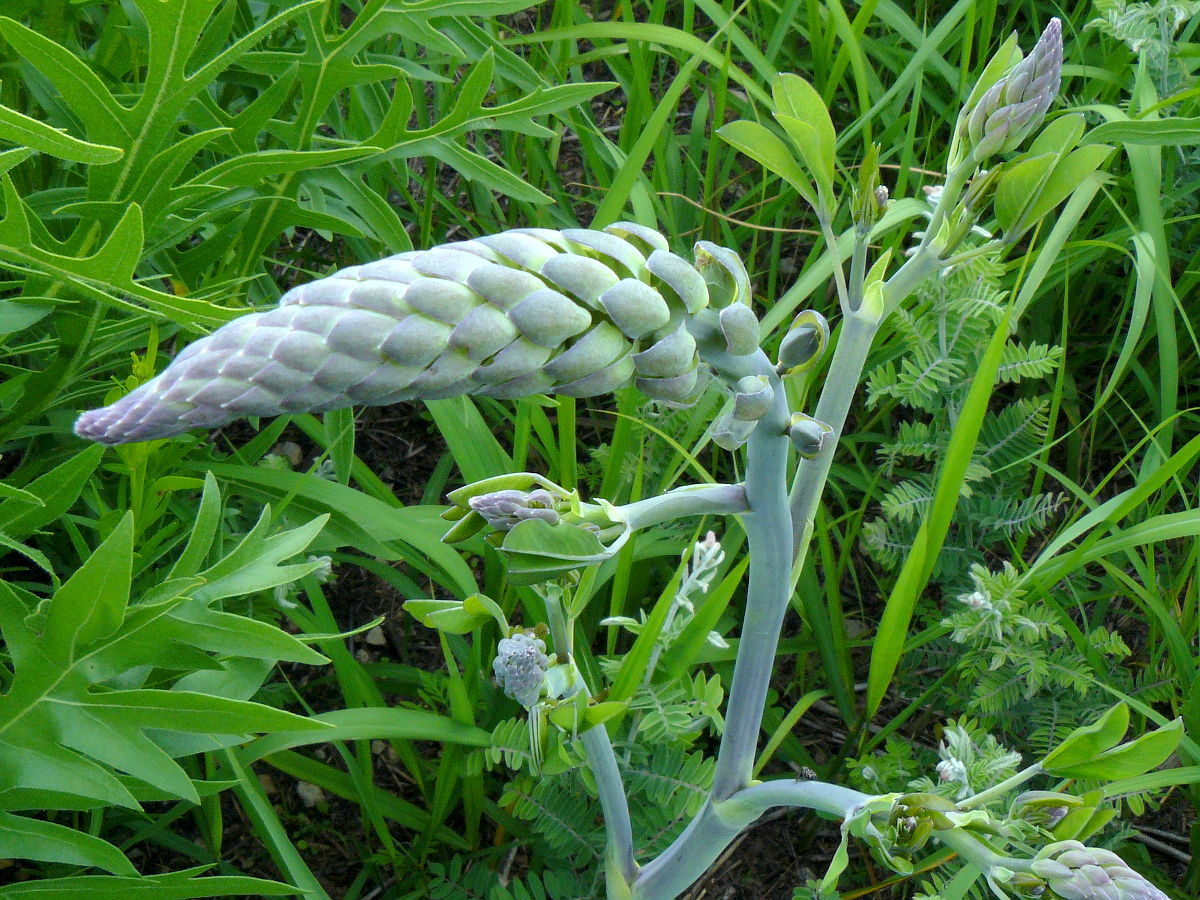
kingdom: Plantae
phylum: Tracheophyta
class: Magnoliopsida
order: Fabales
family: Fabaceae
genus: Baptisia
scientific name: Baptisia alba
